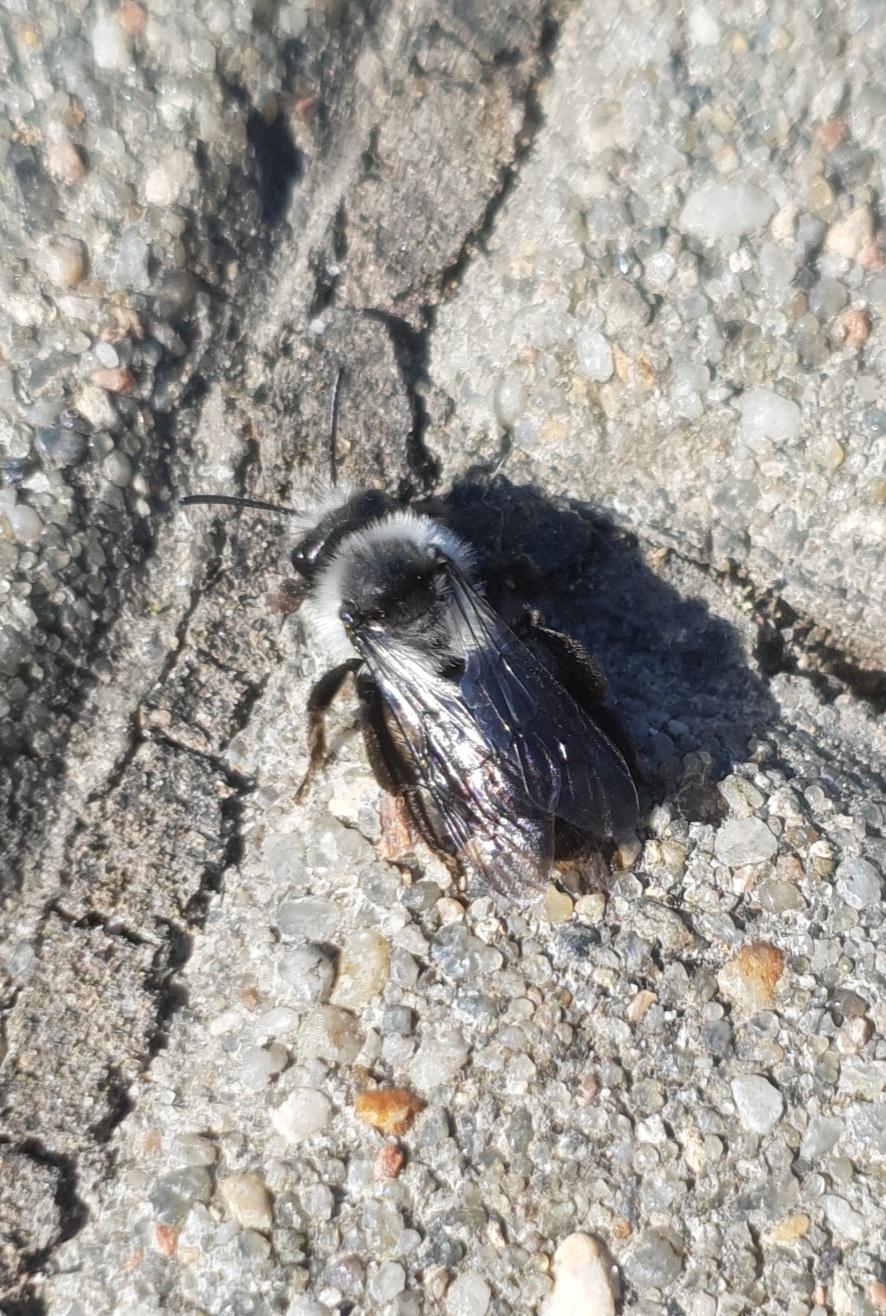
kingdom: Animalia
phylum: Arthropoda
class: Insecta
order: Hymenoptera
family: Andrenidae
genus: Andrena
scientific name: Andrena cineraria
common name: Ashy mining bee
